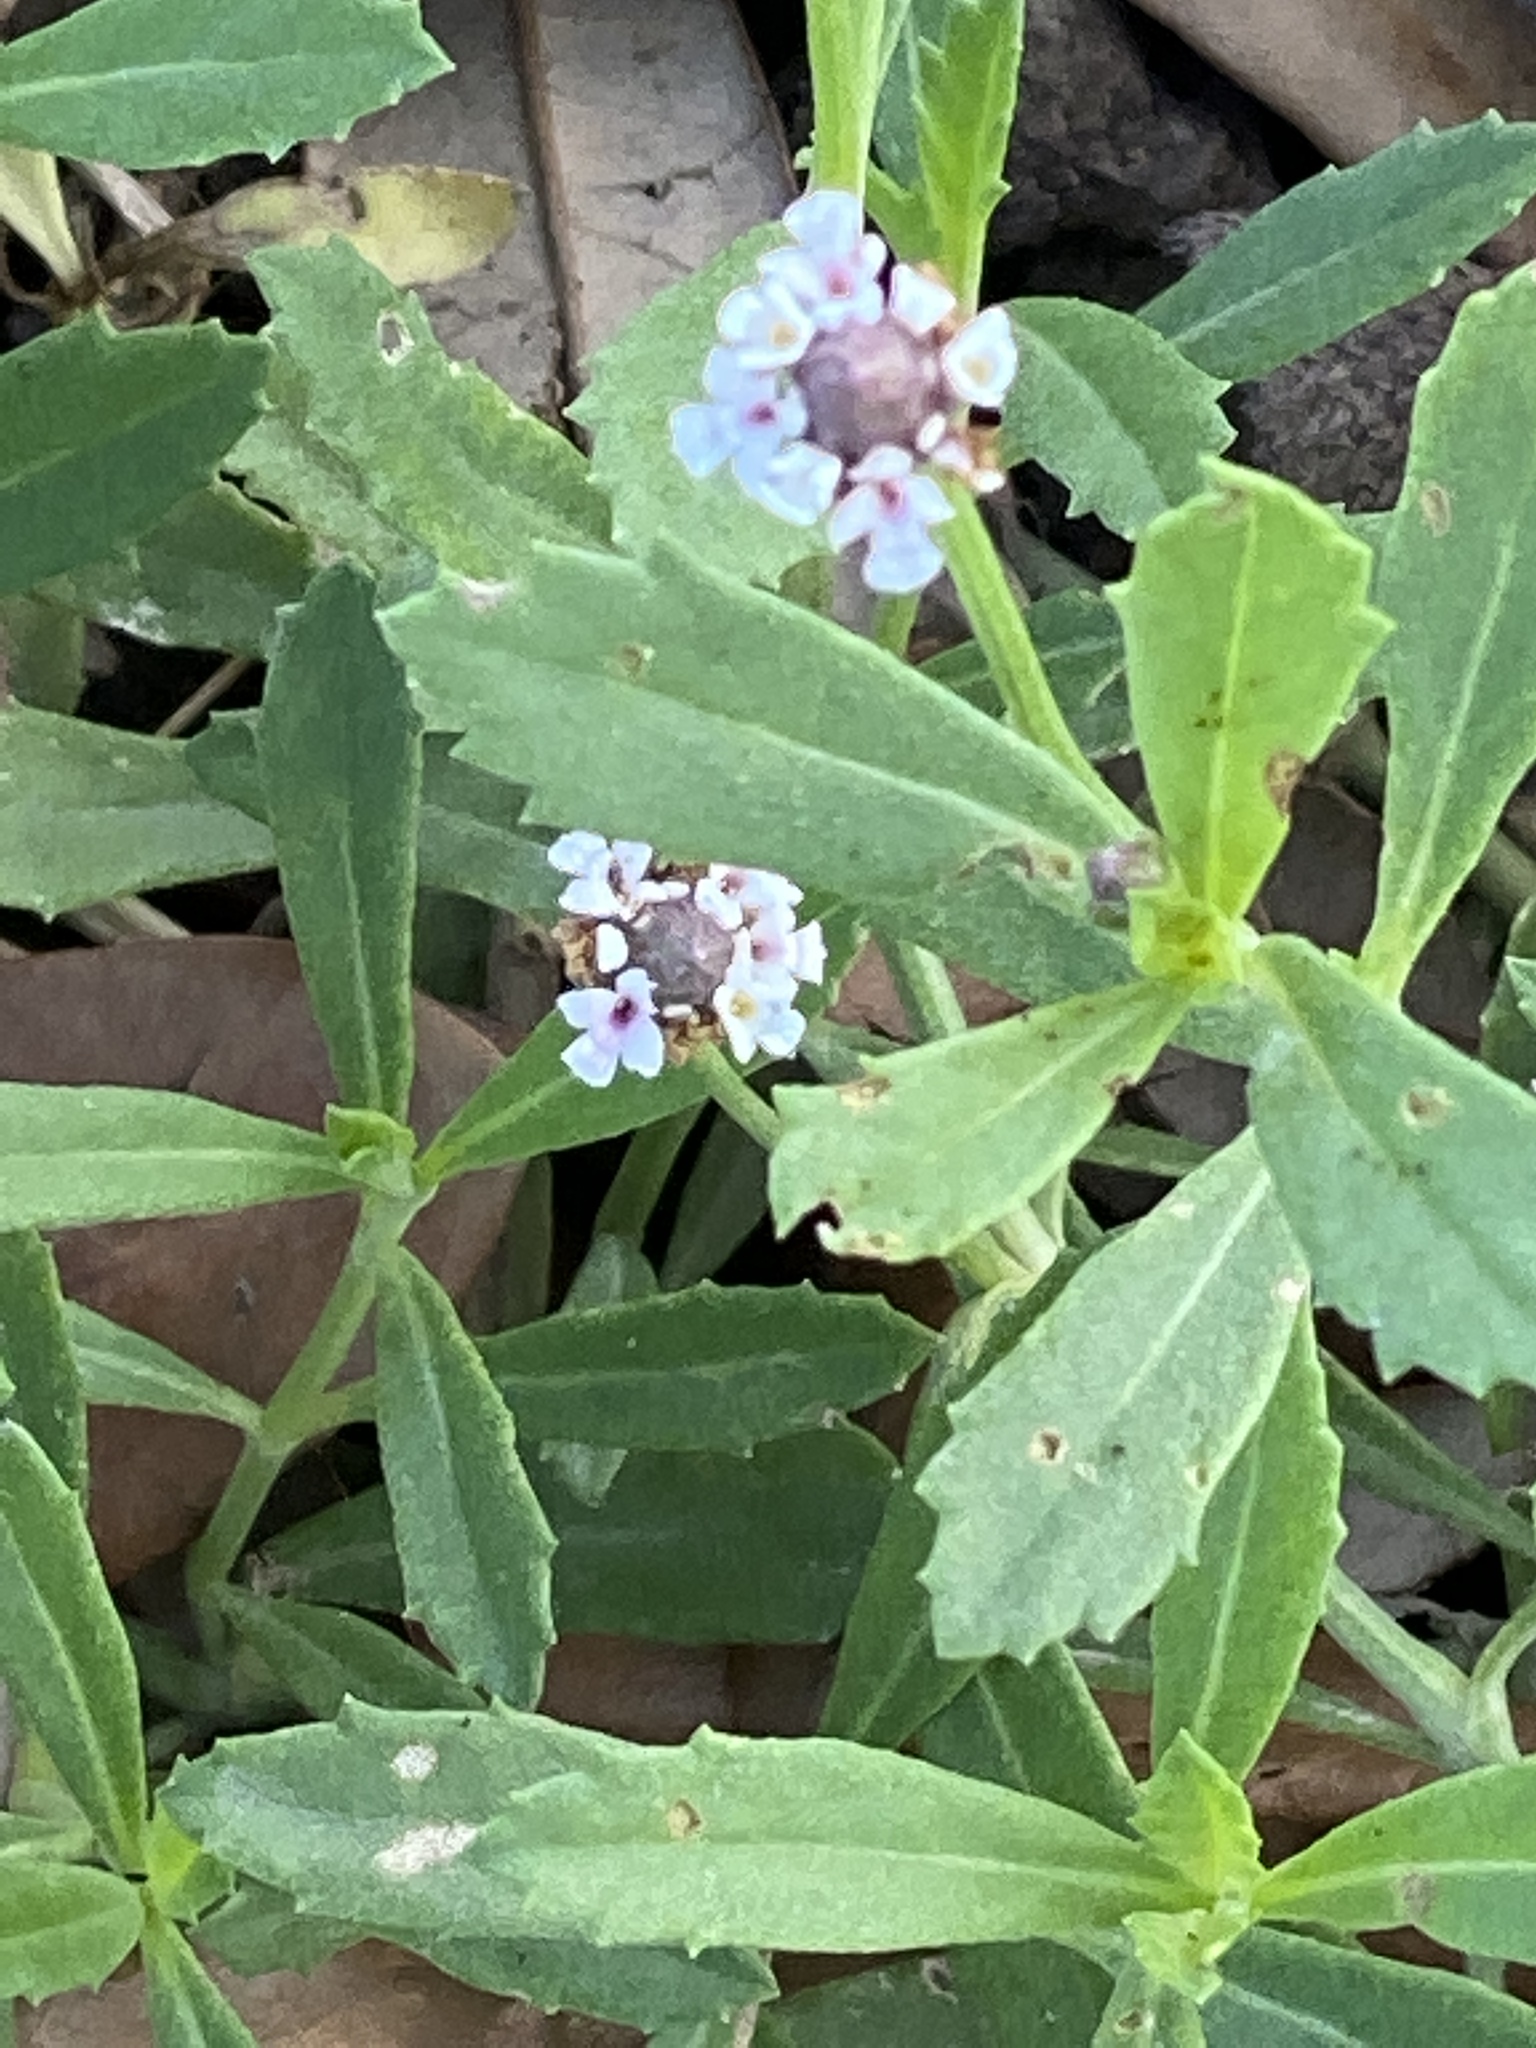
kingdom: Plantae
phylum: Tracheophyta
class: Magnoliopsida
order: Lamiales
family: Verbenaceae
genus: Phyla
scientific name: Phyla nodiflora
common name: Frogfruit
